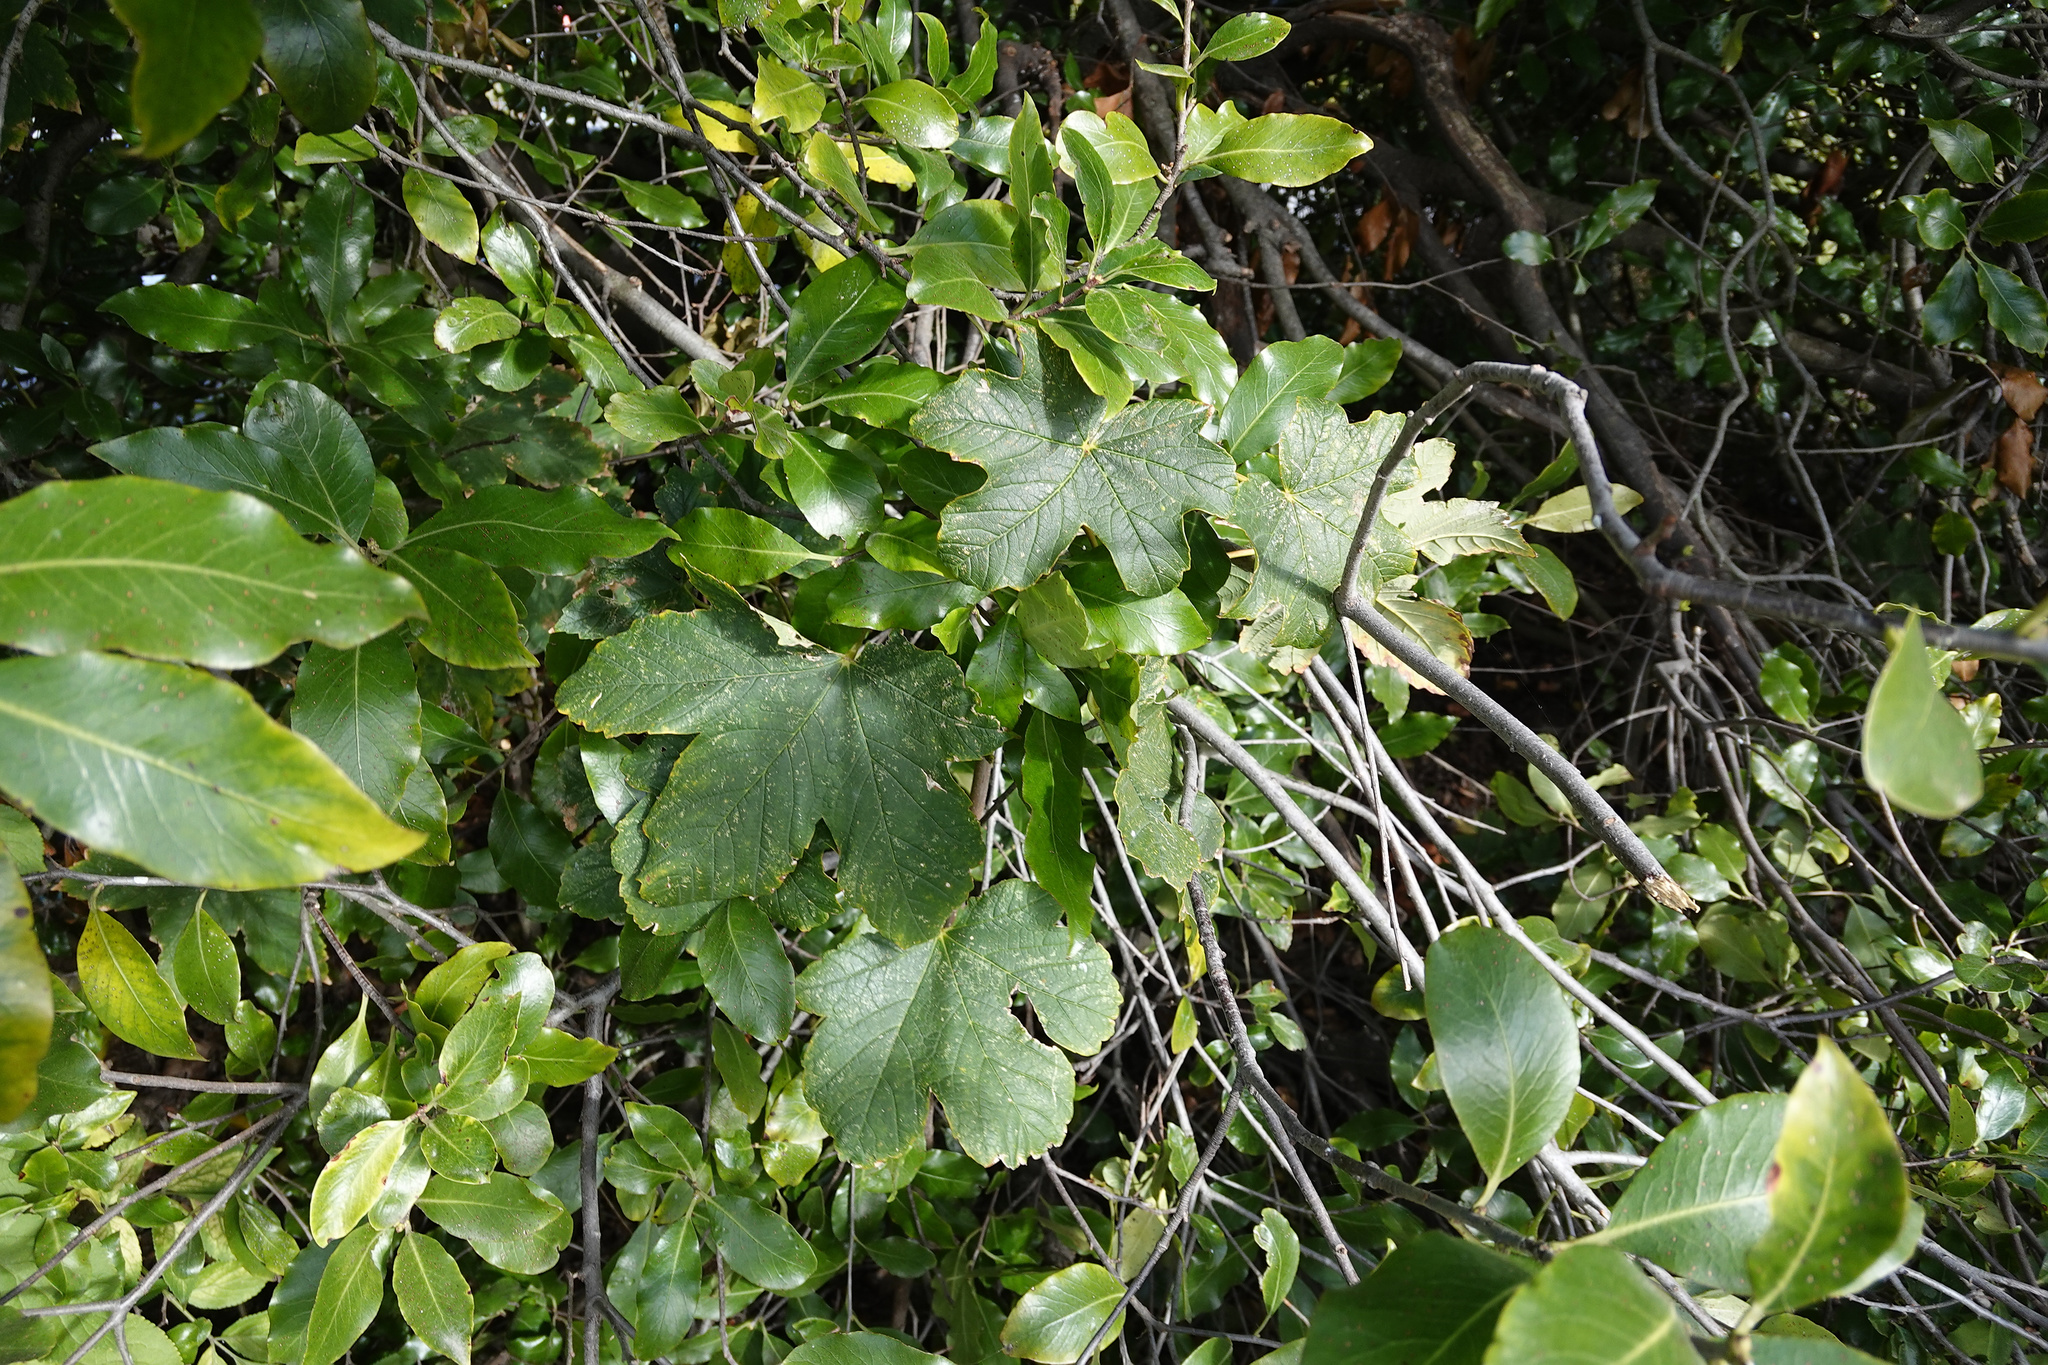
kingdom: Plantae
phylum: Tracheophyta
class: Magnoliopsida
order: Sapindales
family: Sapindaceae
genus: Acer
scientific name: Acer pseudoplatanus
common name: Sycamore
